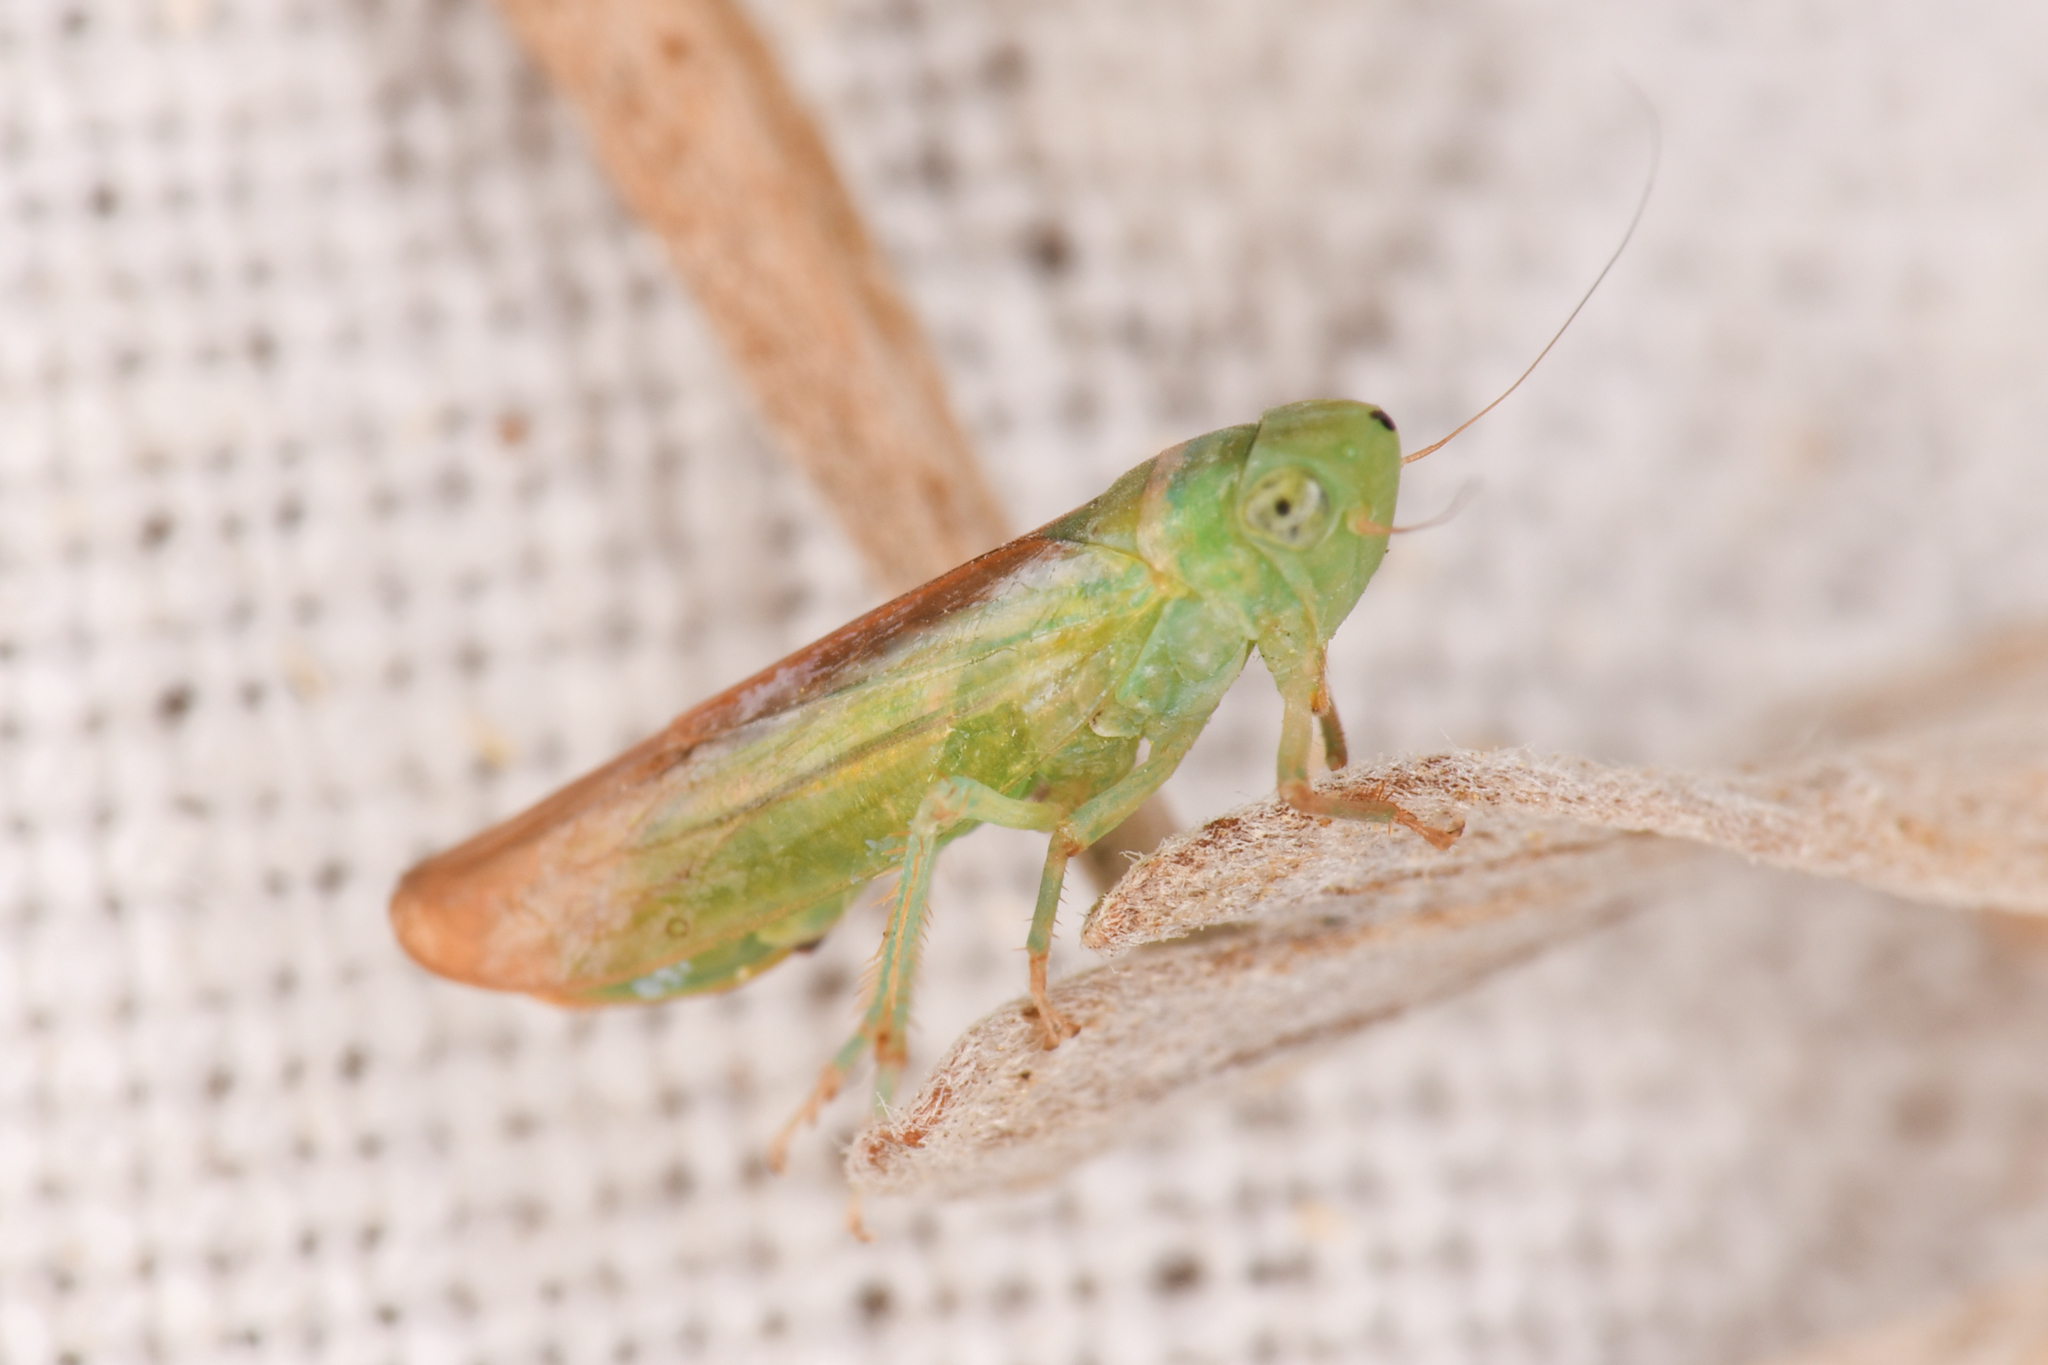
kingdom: Animalia
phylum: Arthropoda
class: Insecta
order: Hemiptera
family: Cicadellidae
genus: Neocoelidia
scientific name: Neocoelidia lineata
